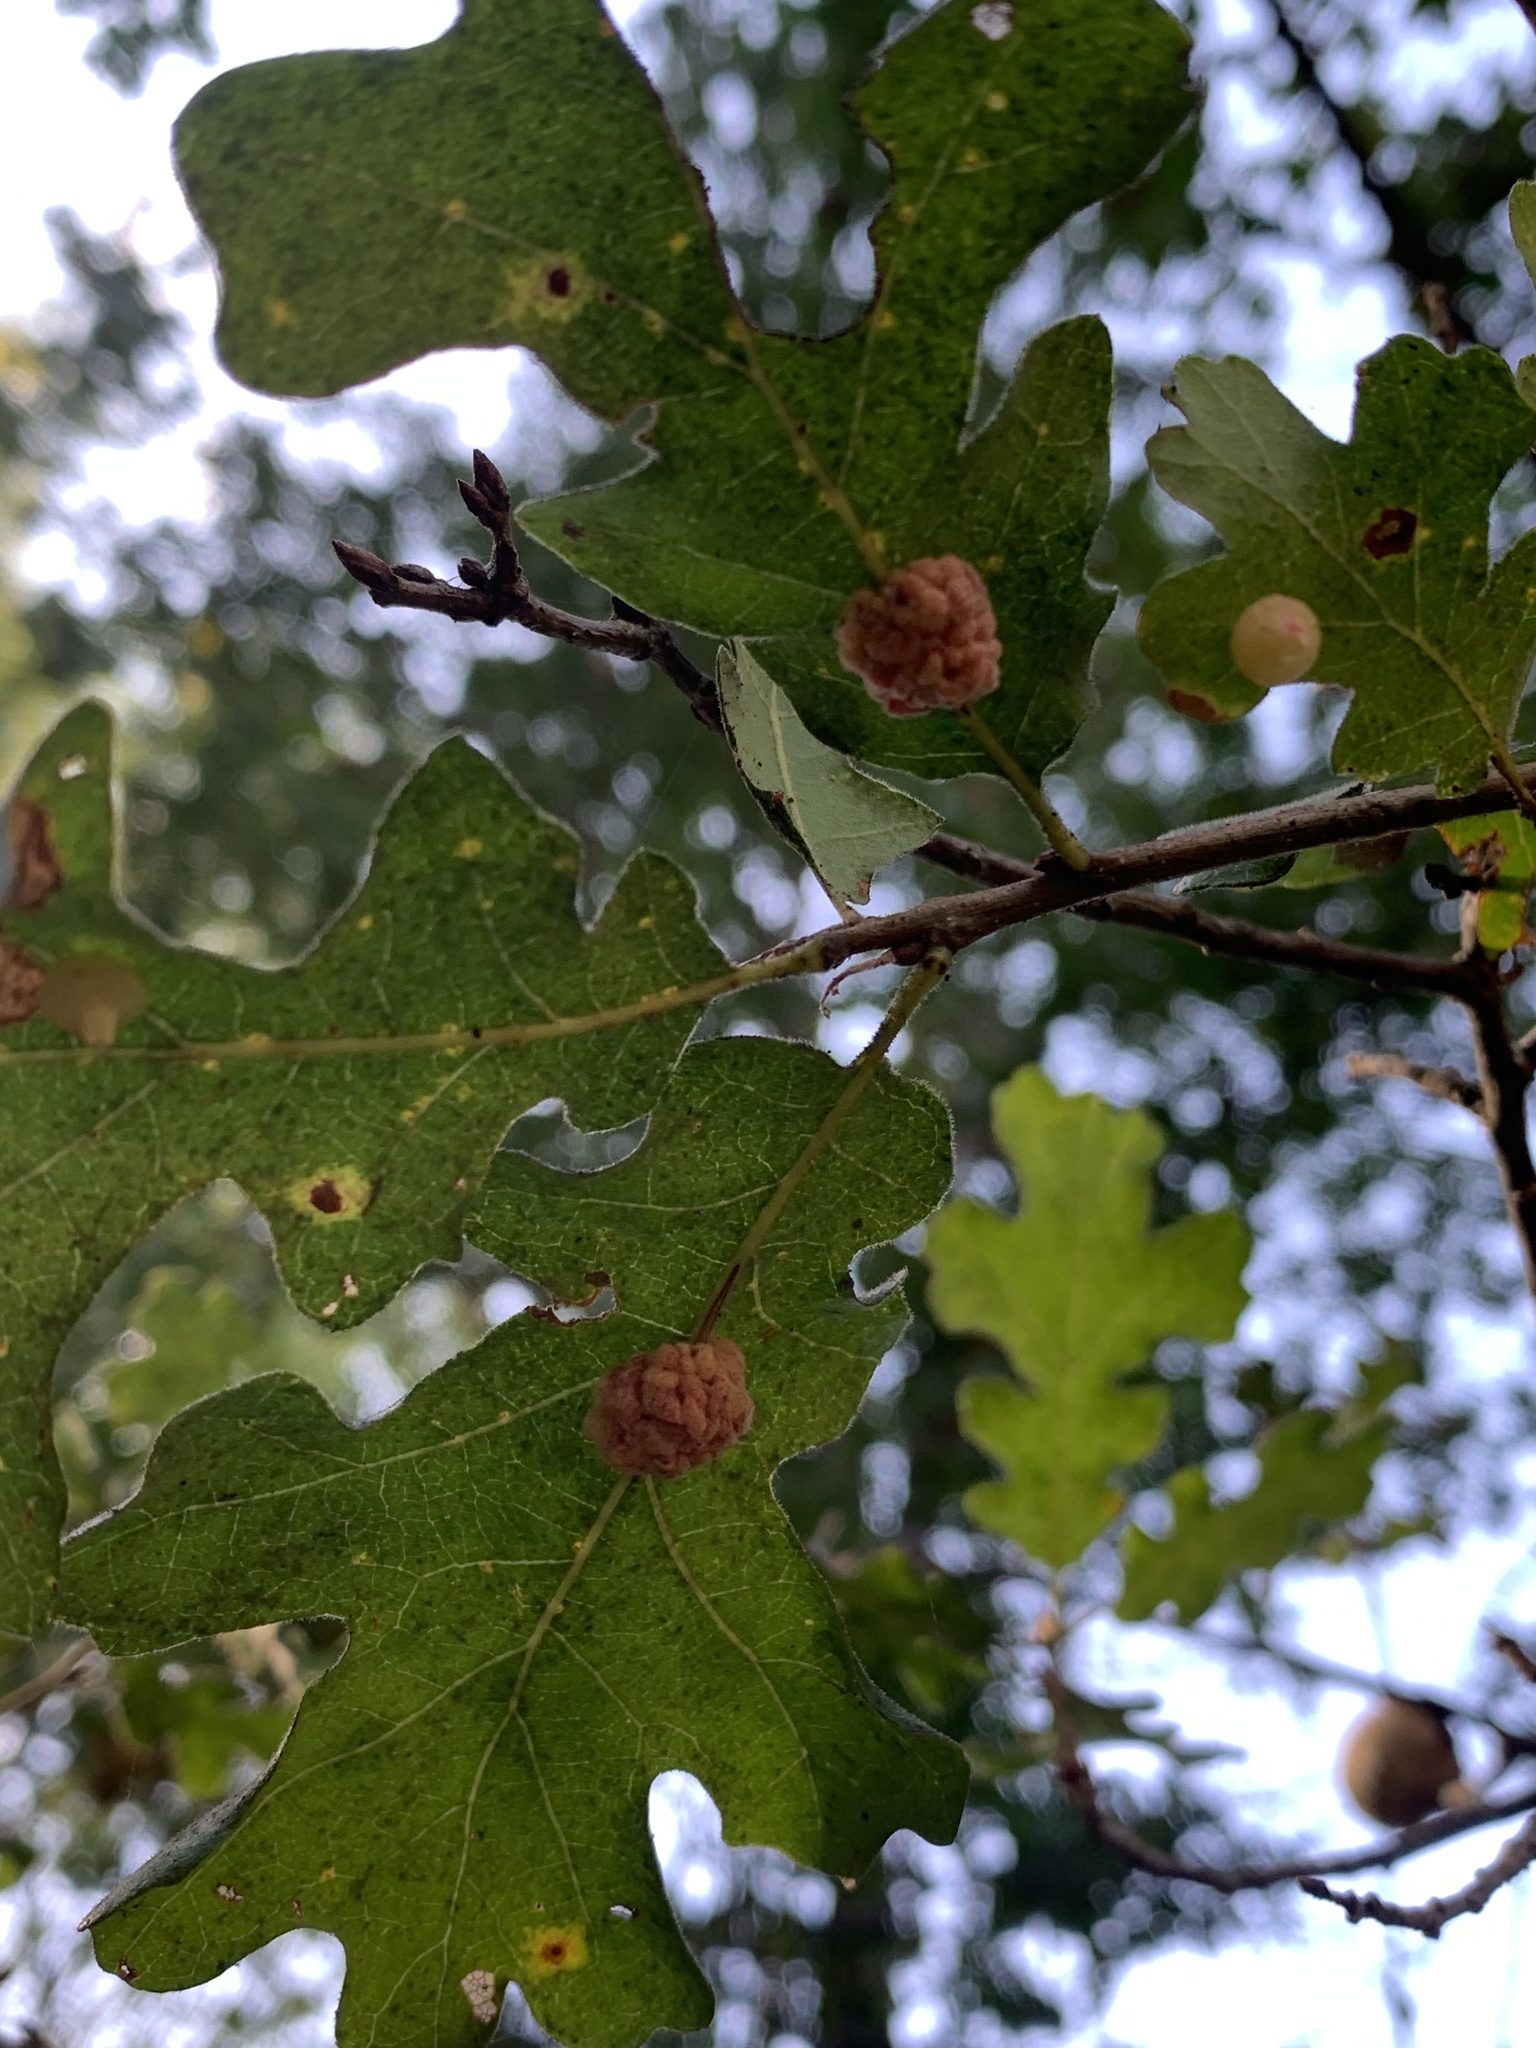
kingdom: Animalia
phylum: Arthropoda
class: Insecta
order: Hymenoptera
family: Cynipidae
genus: Andricus
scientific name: Andricus
